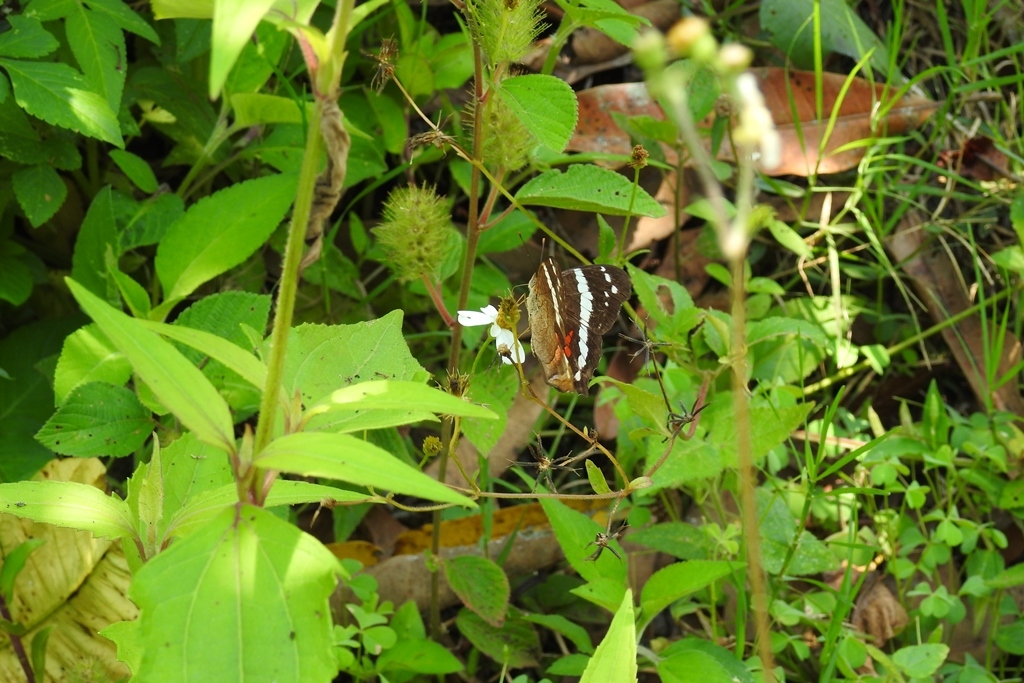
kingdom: Animalia
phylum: Arthropoda
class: Insecta
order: Lepidoptera
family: Nymphalidae
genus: Anartia
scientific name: Anartia fatima
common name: Banded peacock
